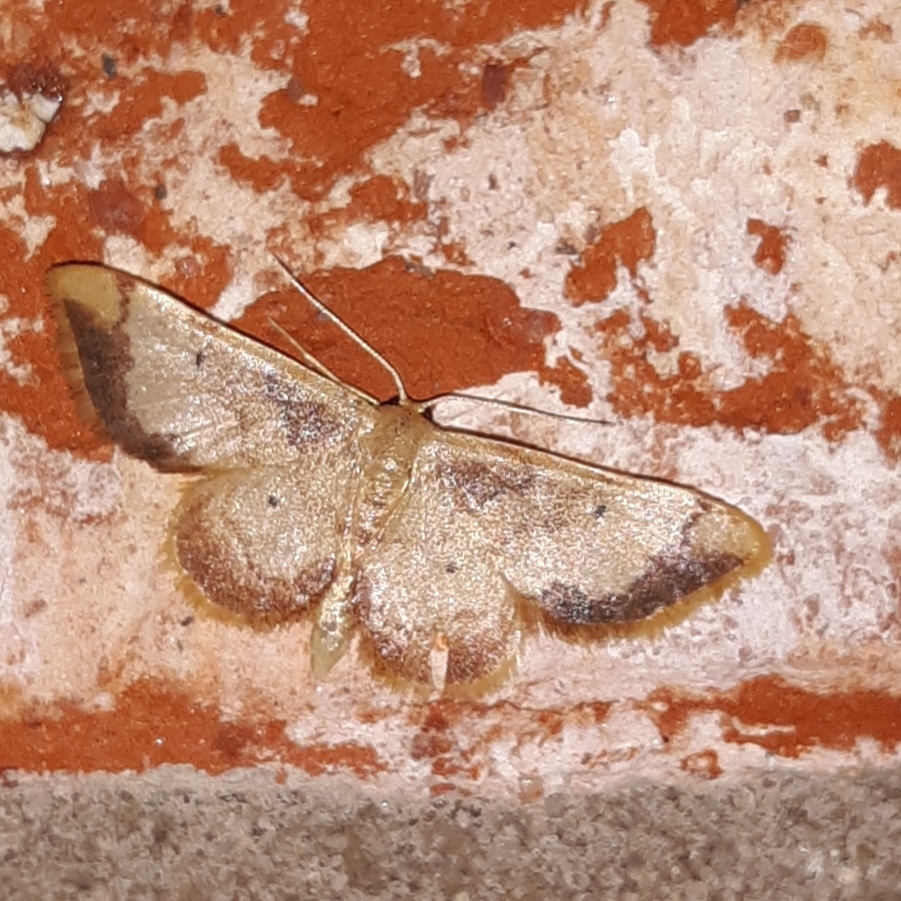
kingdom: Animalia
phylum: Arthropoda
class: Insecta
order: Lepidoptera
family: Geometridae
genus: Idaea
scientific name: Idaea demissaria
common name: Red-bordered wave
